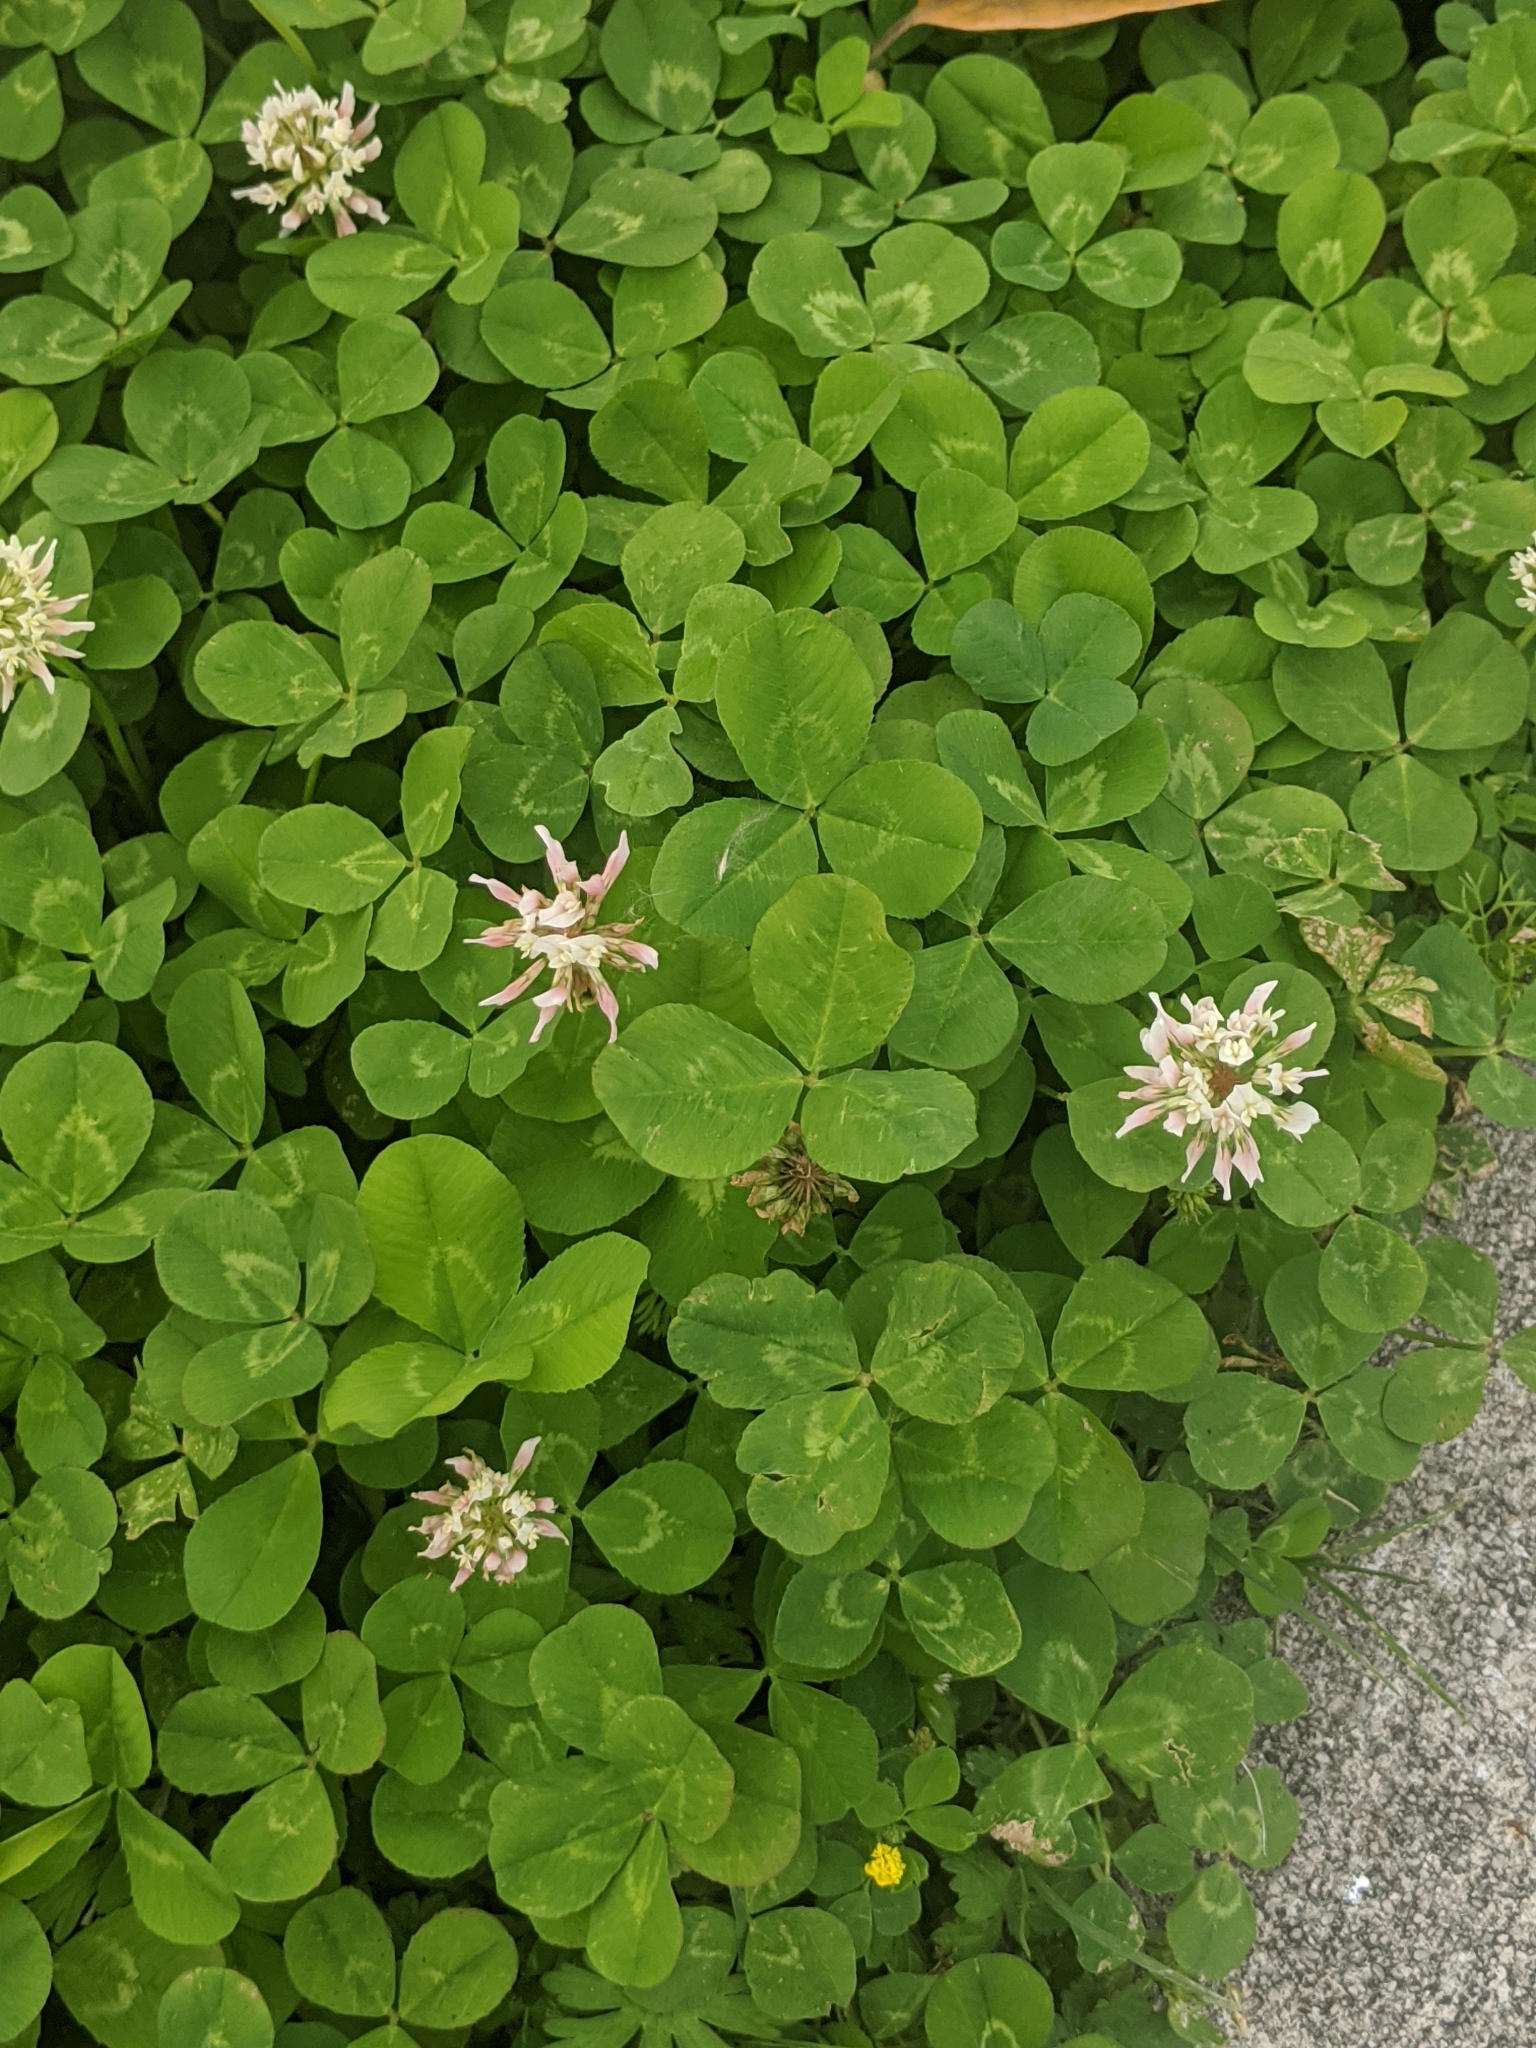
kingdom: Plantae
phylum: Tracheophyta
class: Magnoliopsida
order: Fabales
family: Fabaceae
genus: Trifolium
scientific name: Trifolium repens
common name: White clover
